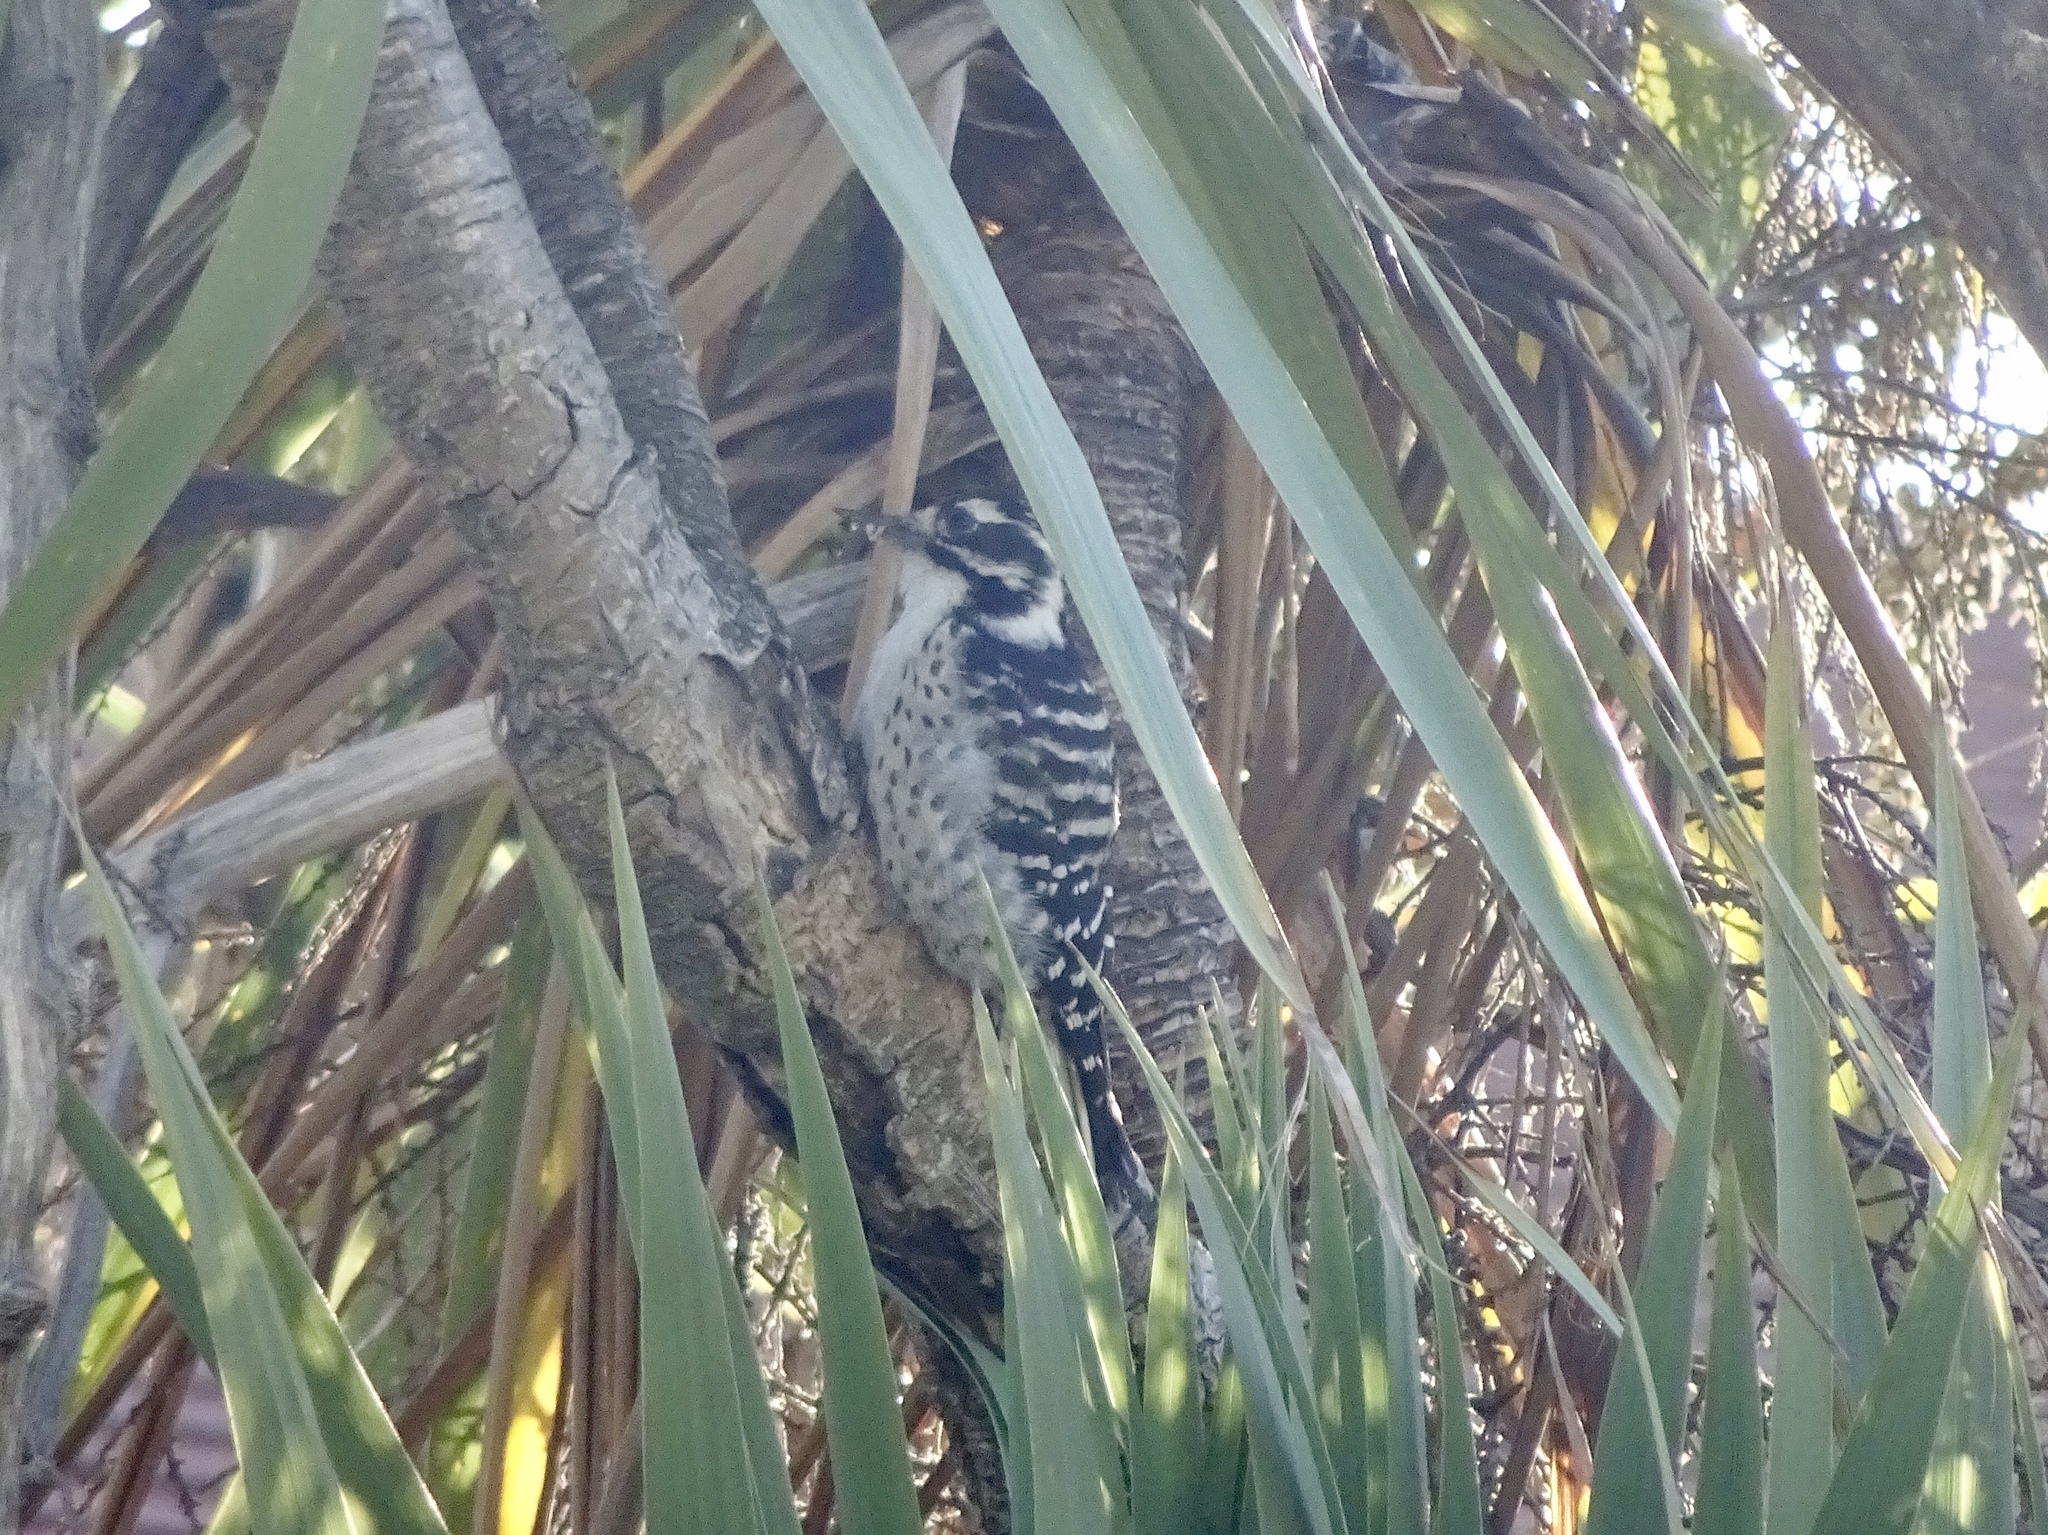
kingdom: Animalia
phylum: Chordata
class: Aves
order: Piciformes
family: Picidae
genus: Dryobates
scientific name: Dryobates nuttallii
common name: Nuttall's woodpecker
